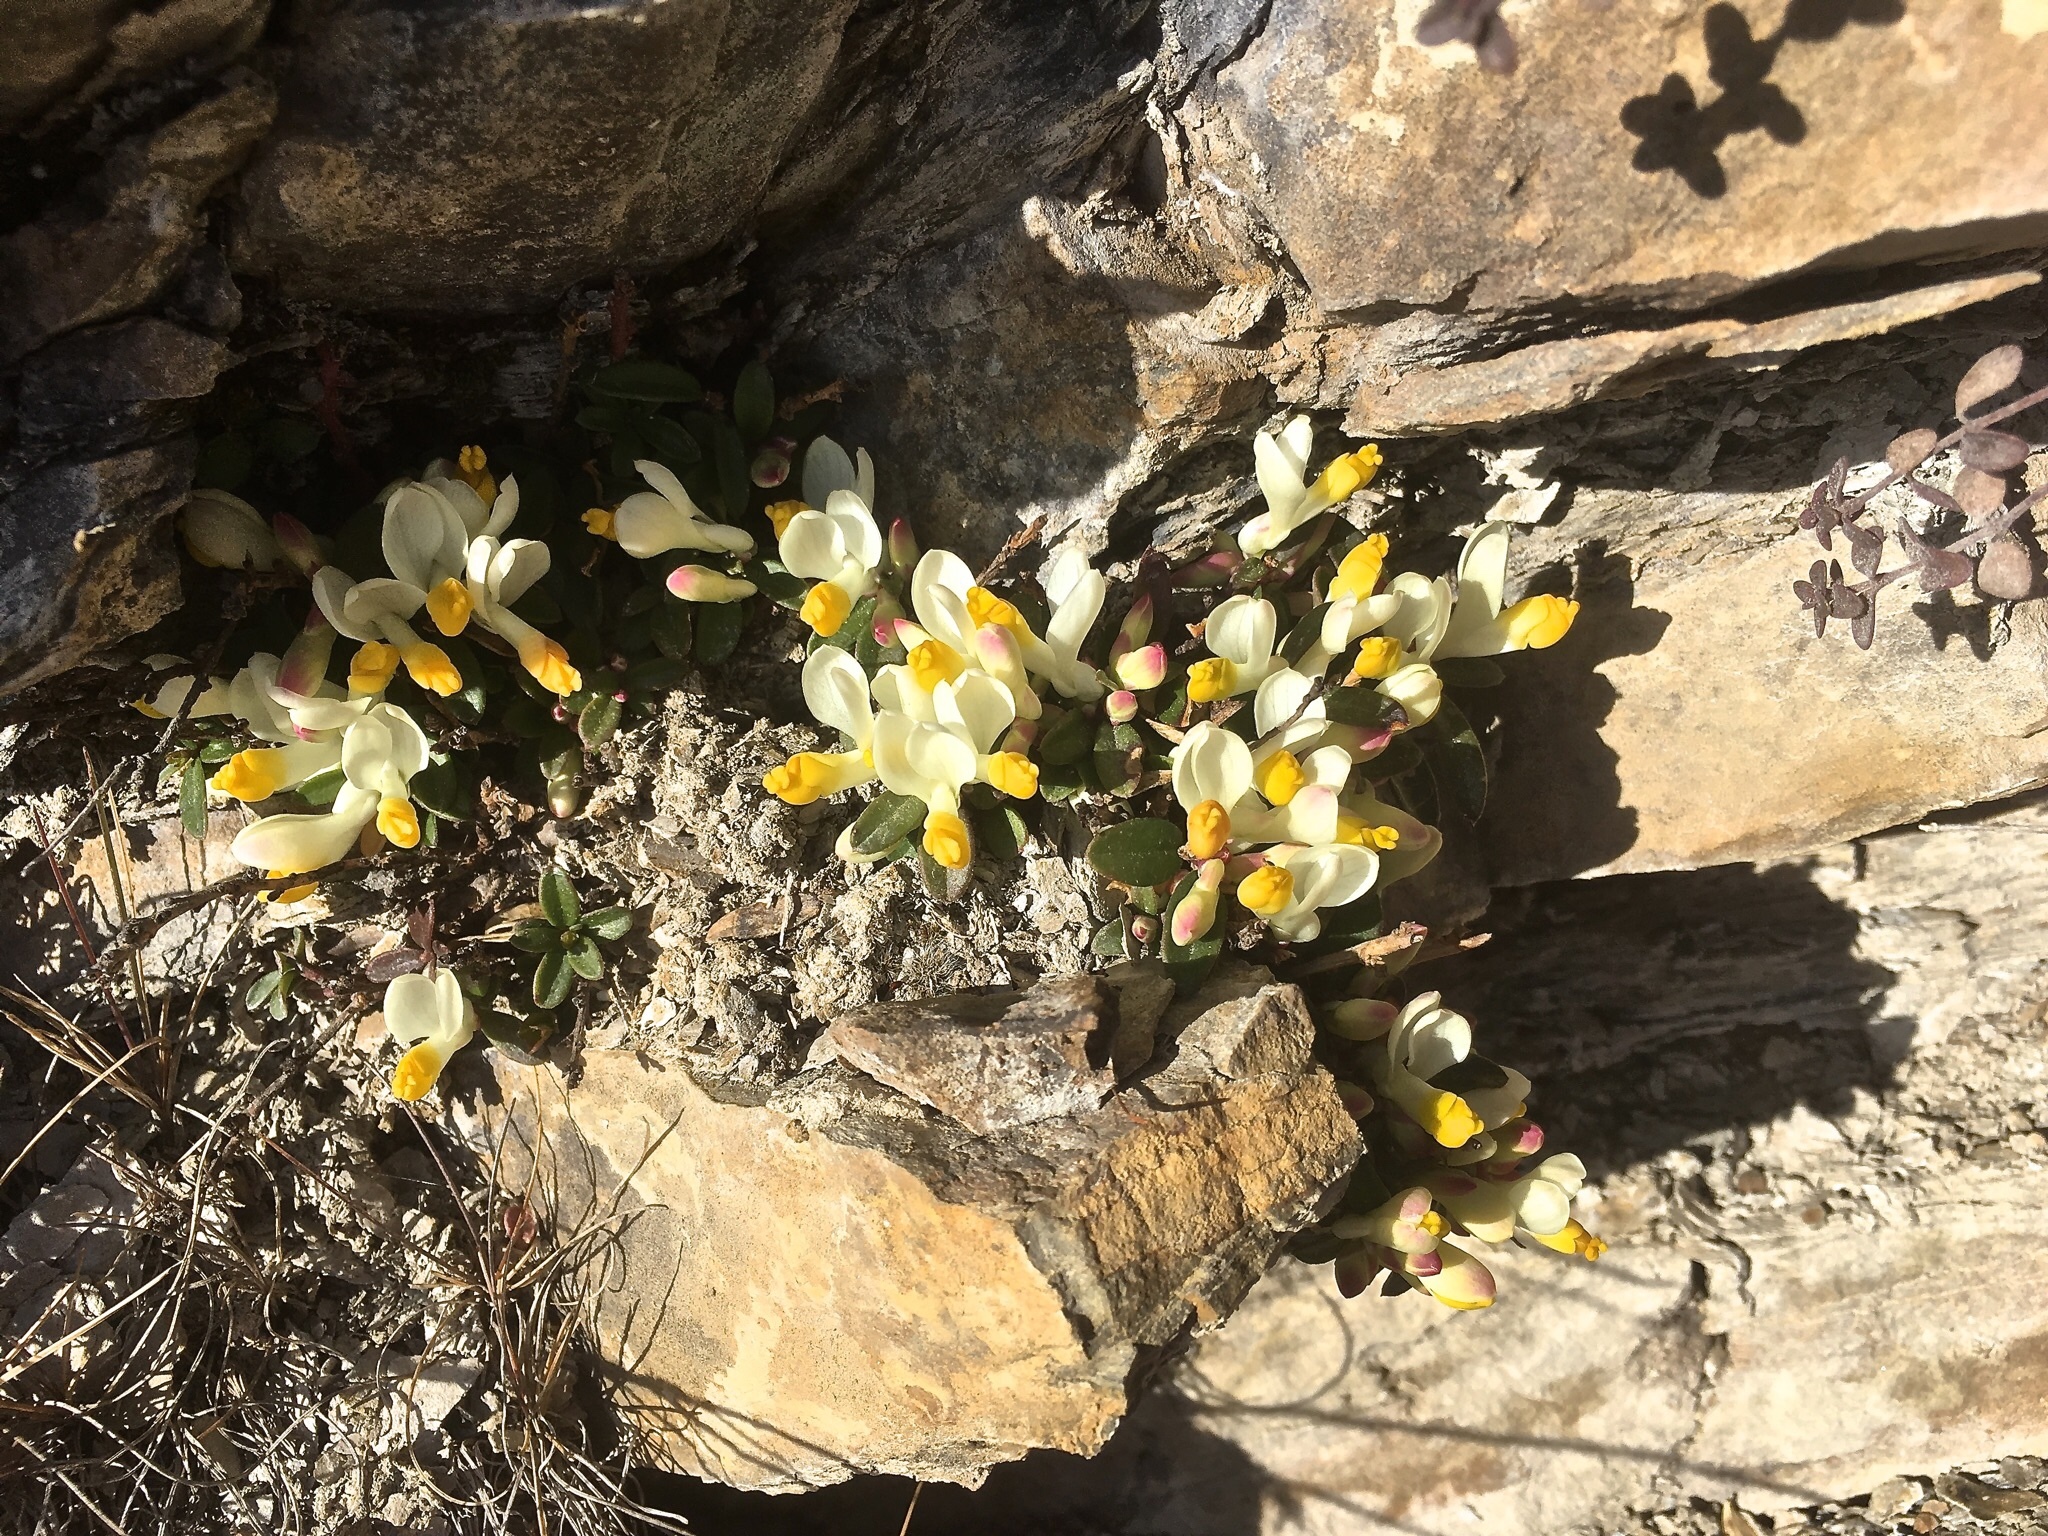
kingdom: Plantae
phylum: Tracheophyta
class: Magnoliopsida
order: Fabales
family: Polygalaceae
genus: Polygaloides
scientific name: Polygaloides chamaebuxus
